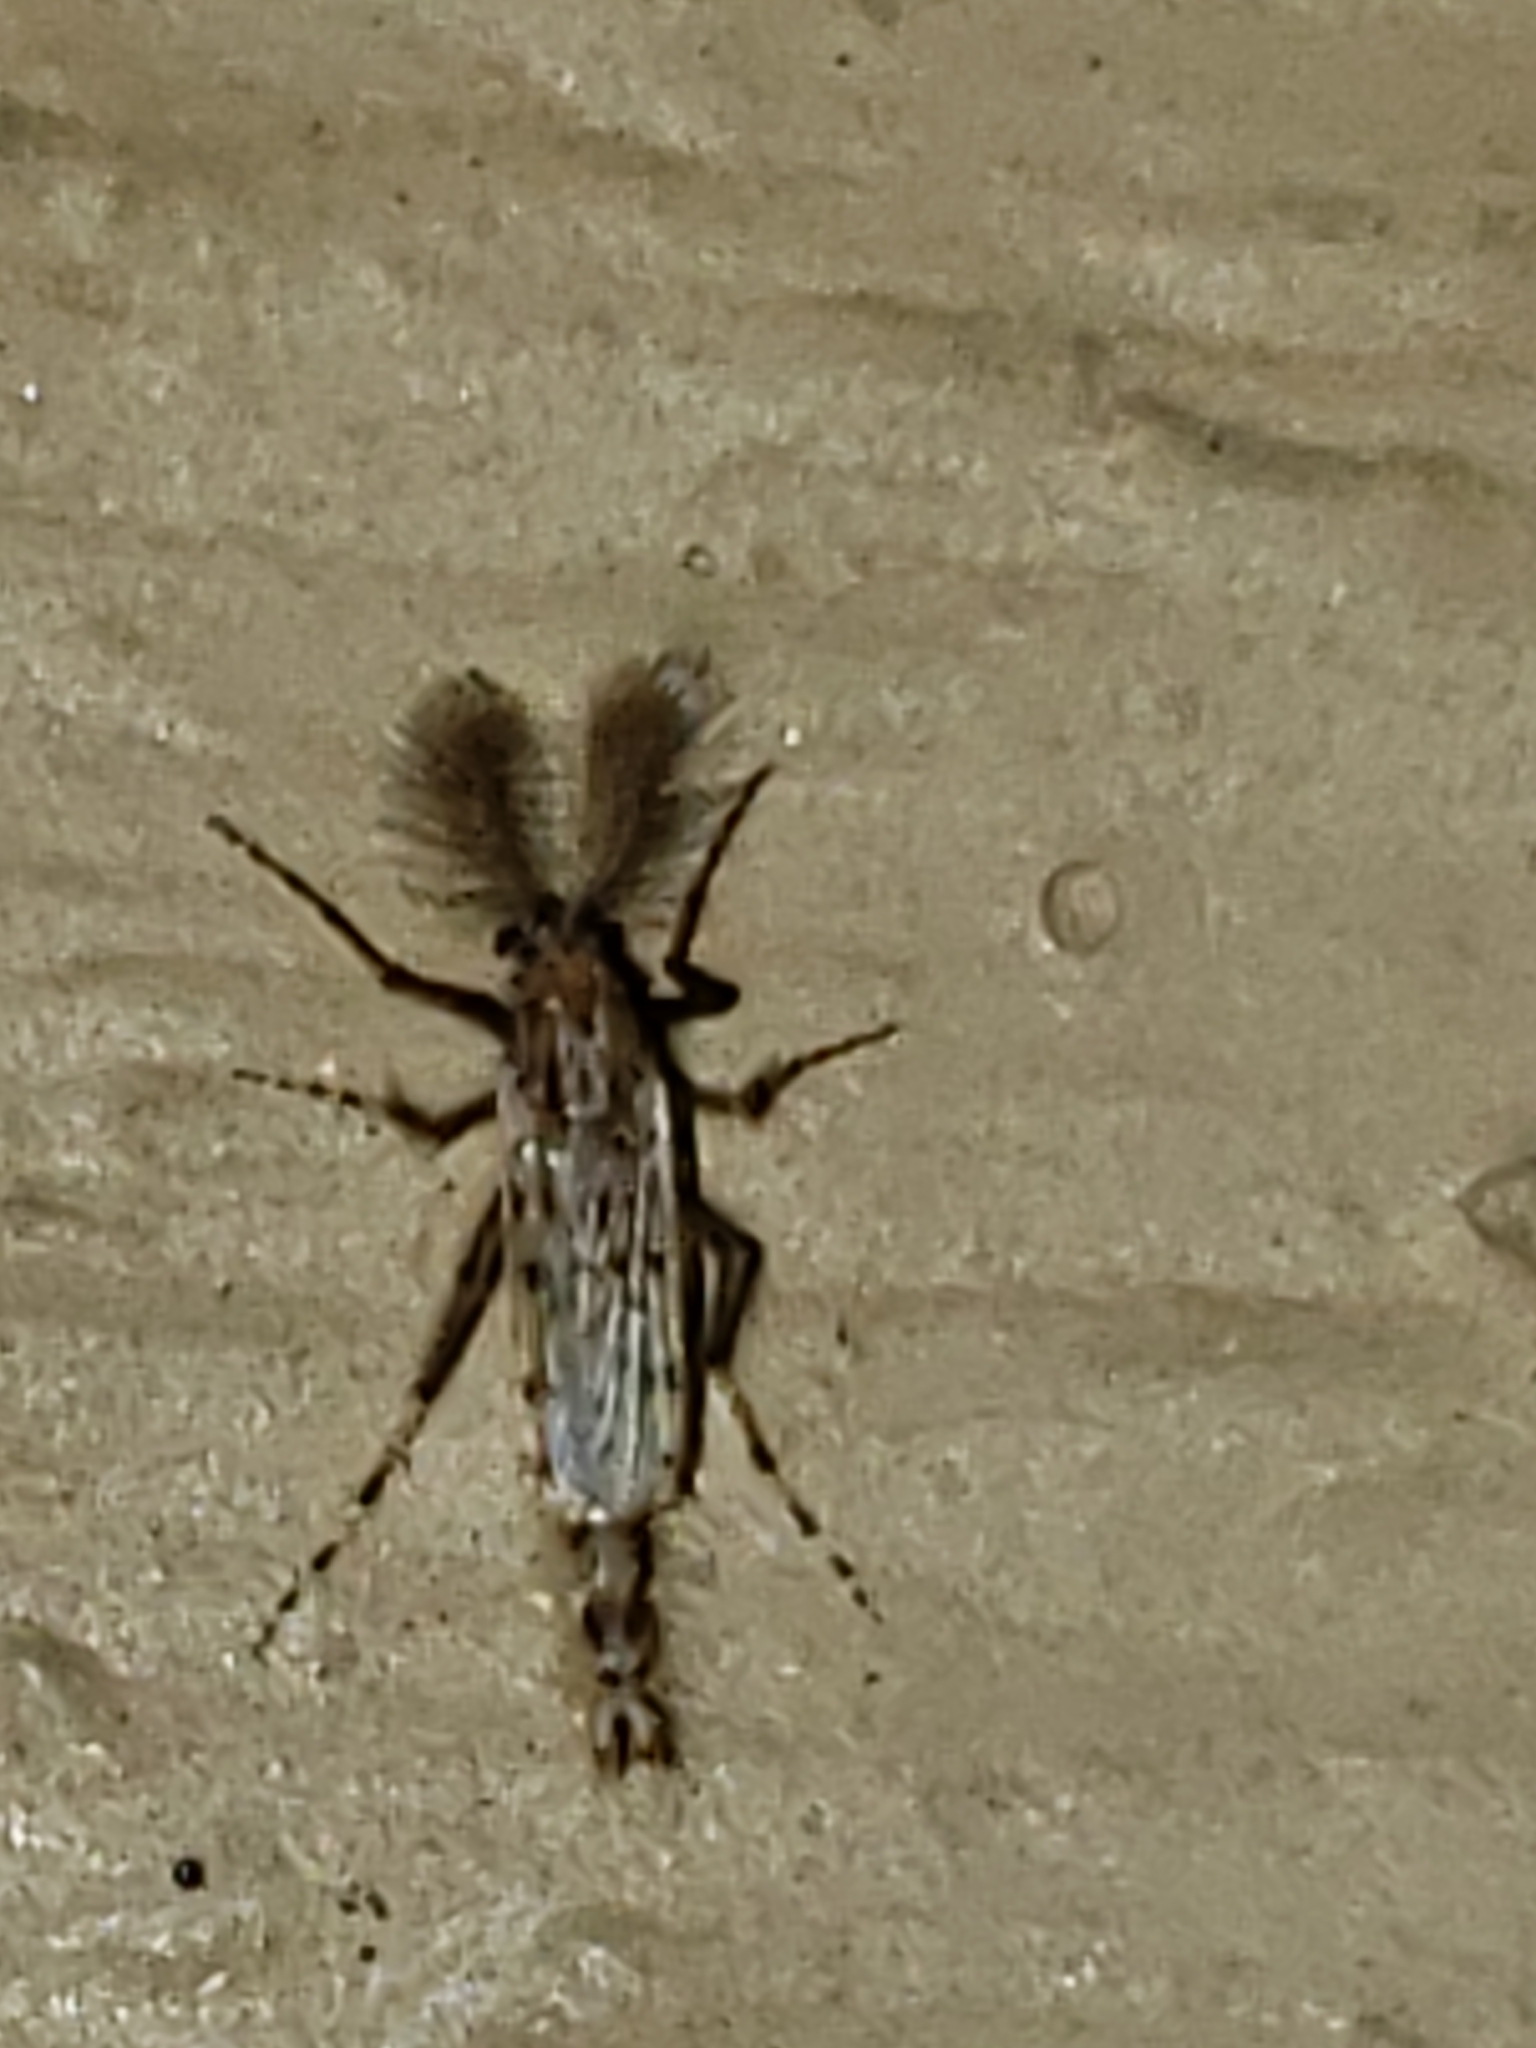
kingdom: Animalia
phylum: Arthropoda
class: Insecta
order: Diptera
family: Chaoboridae
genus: Chaoborus
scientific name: Chaoborus punctipennis
